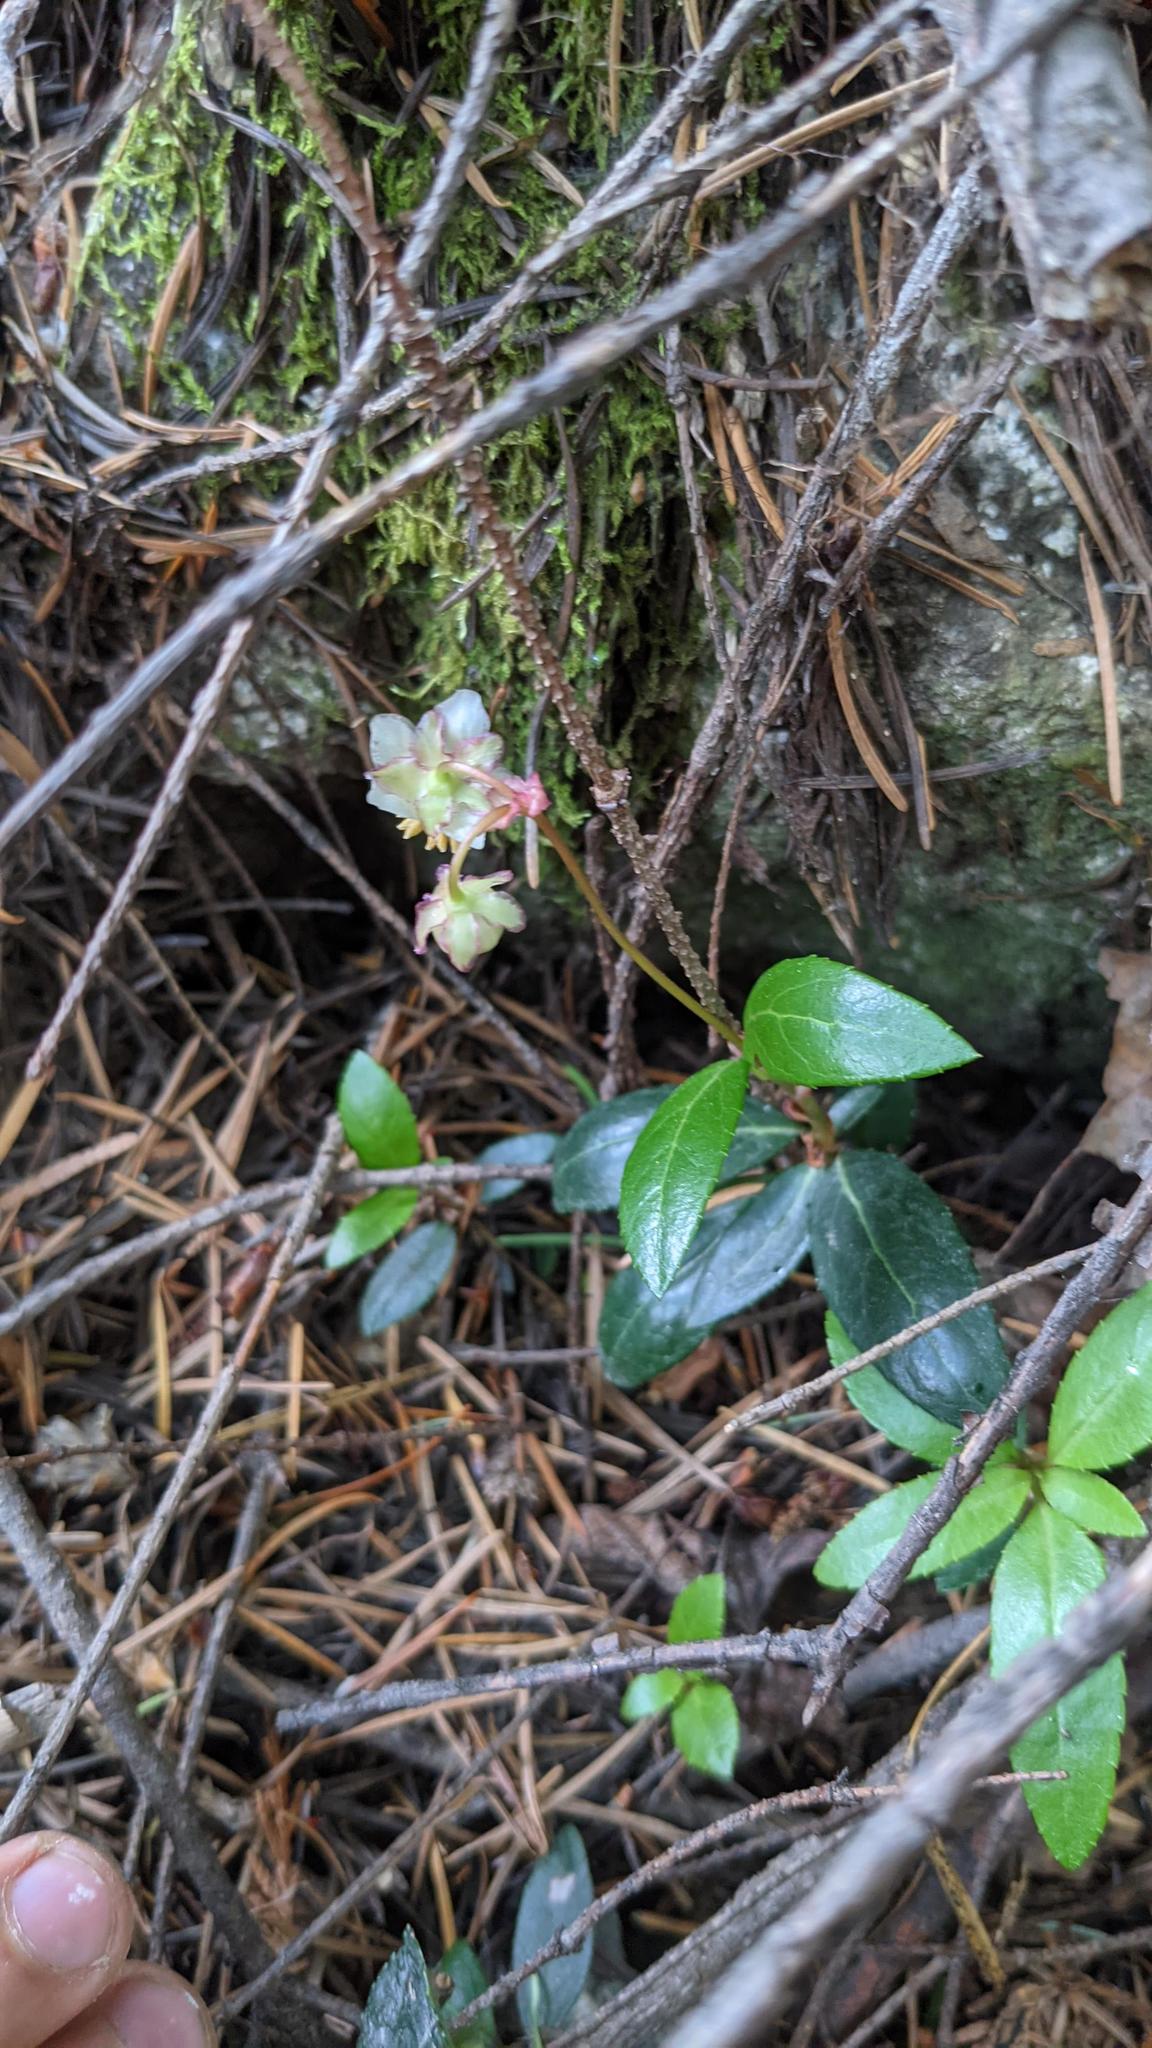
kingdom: Plantae
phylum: Tracheophyta
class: Magnoliopsida
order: Ericales
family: Ericaceae
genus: Chimaphila
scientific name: Chimaphila menziesii
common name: Menzies' pipsissewa
